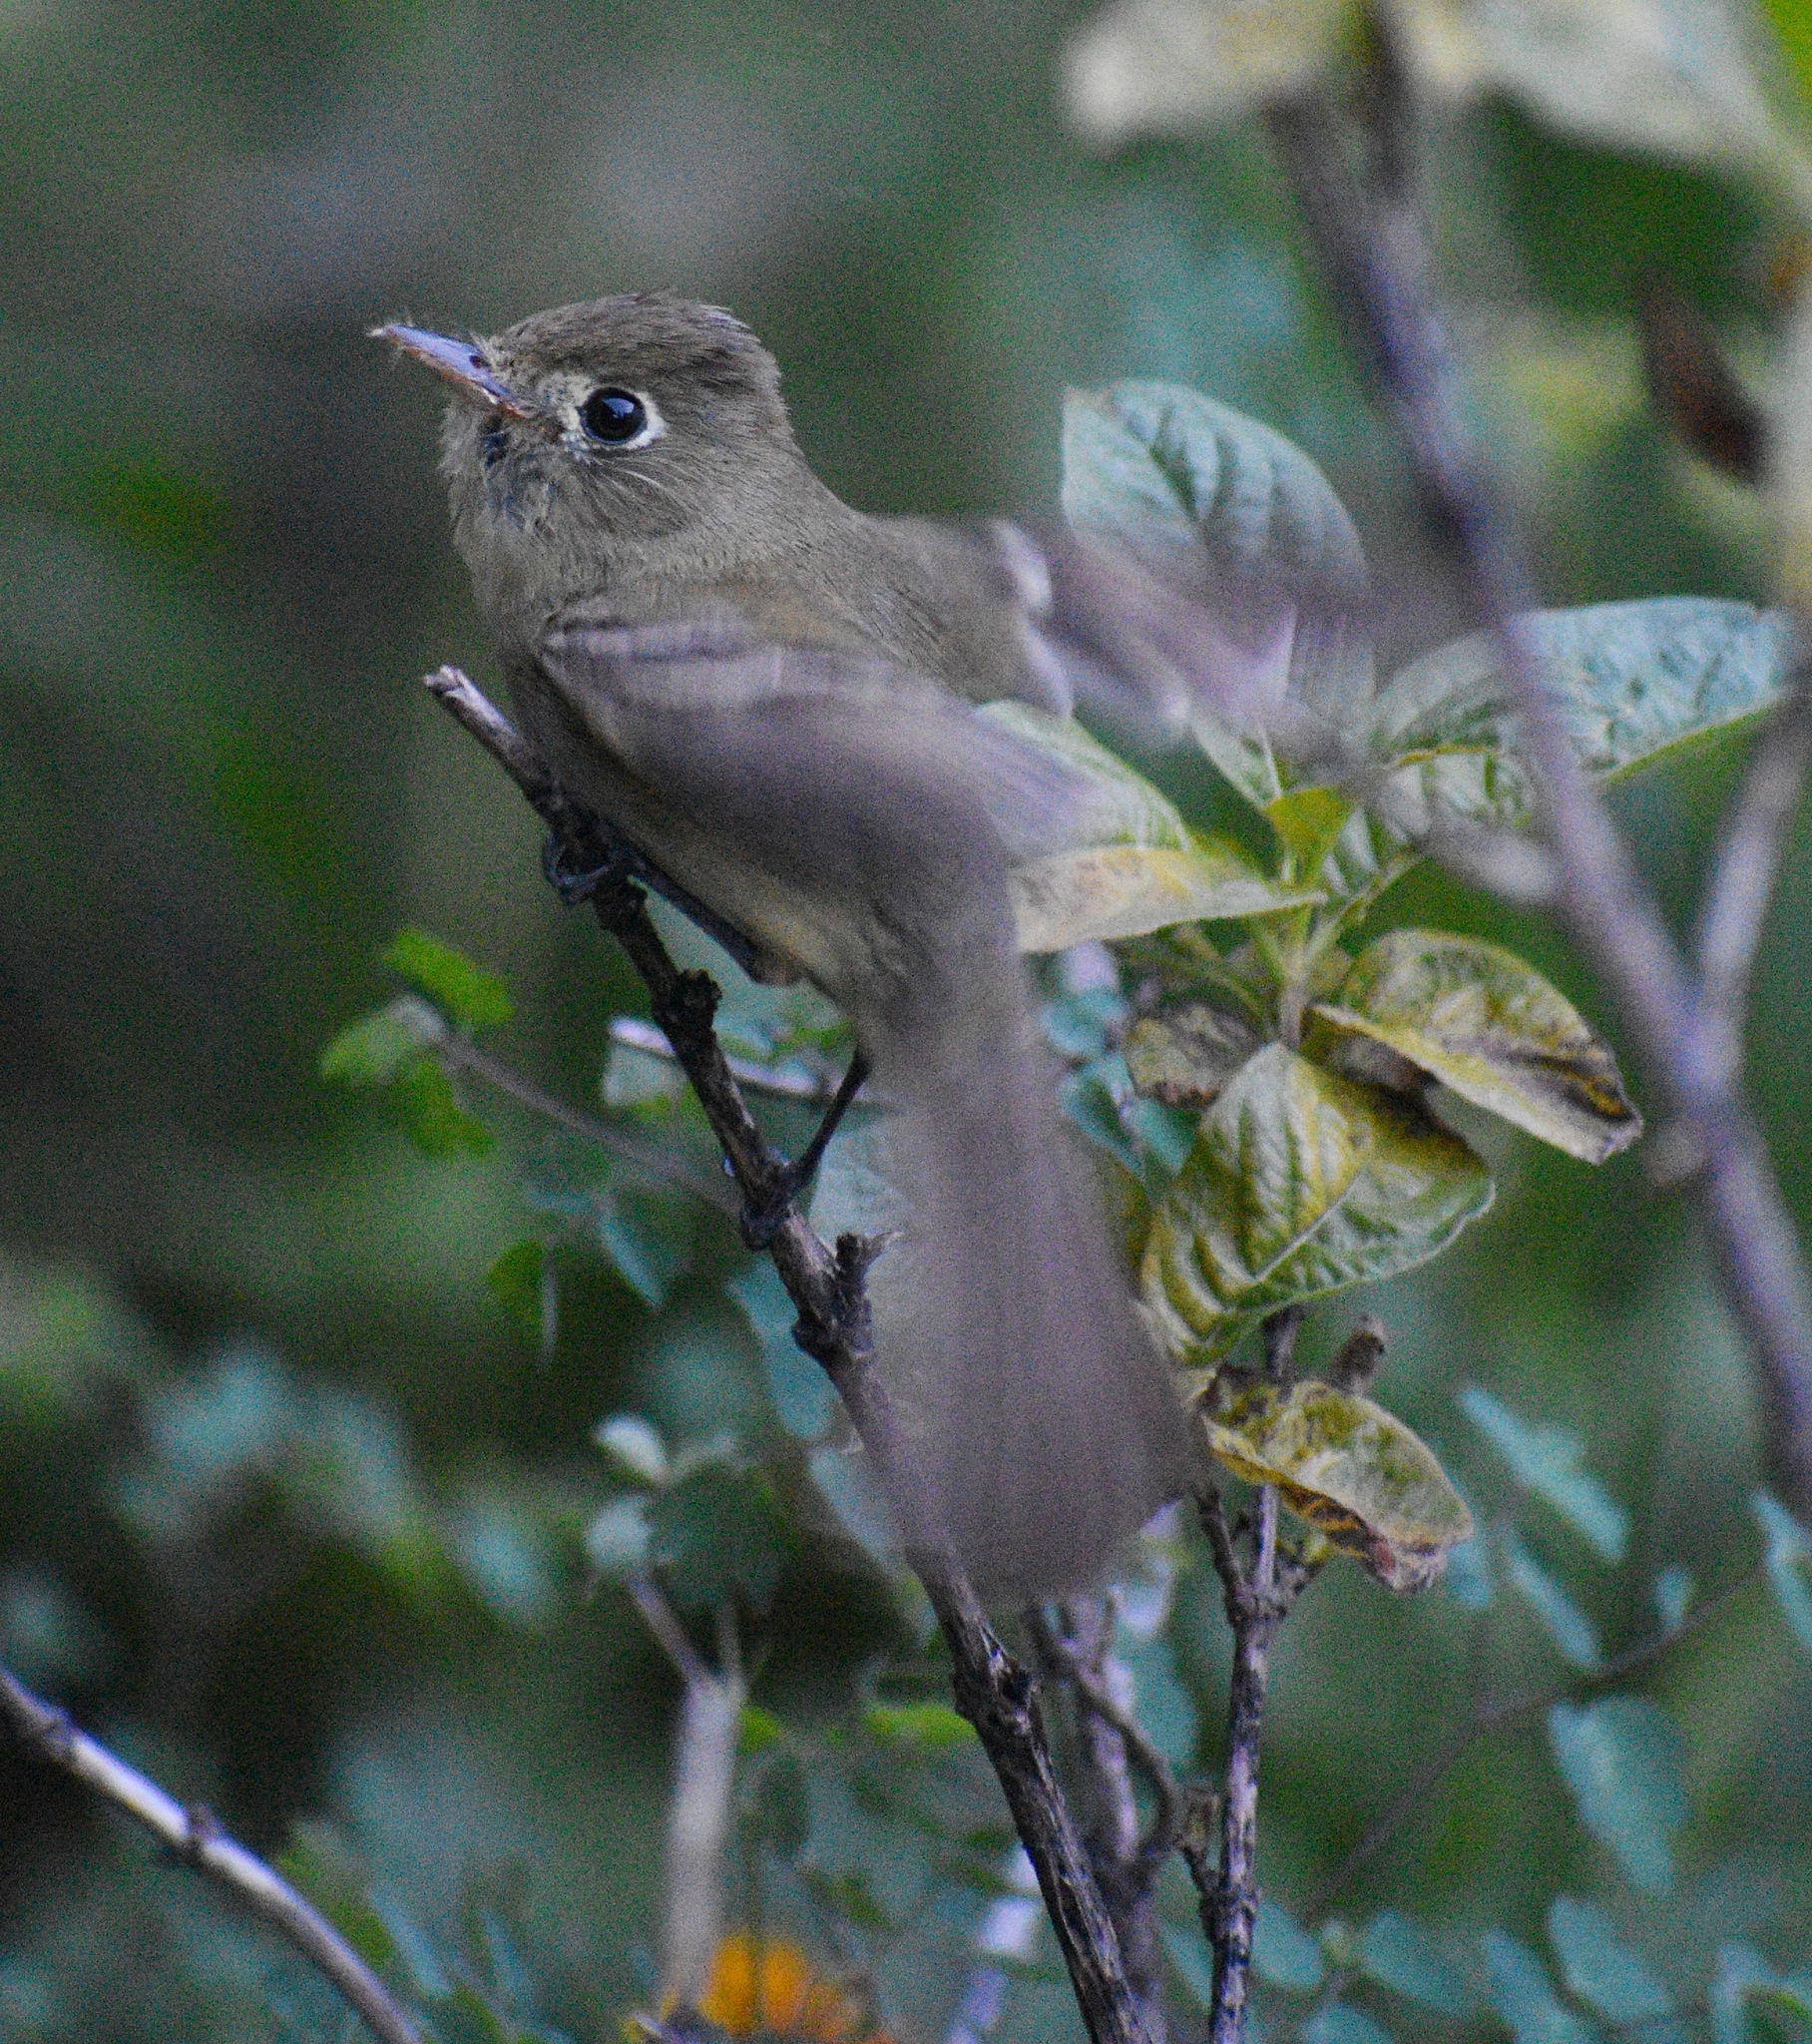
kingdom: Animalia
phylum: Chordata
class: Aves
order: Passeriformes
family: Tyrannidae
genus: Empidonax
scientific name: Empidonax difficilis
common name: Pacific-slope flycatcher
